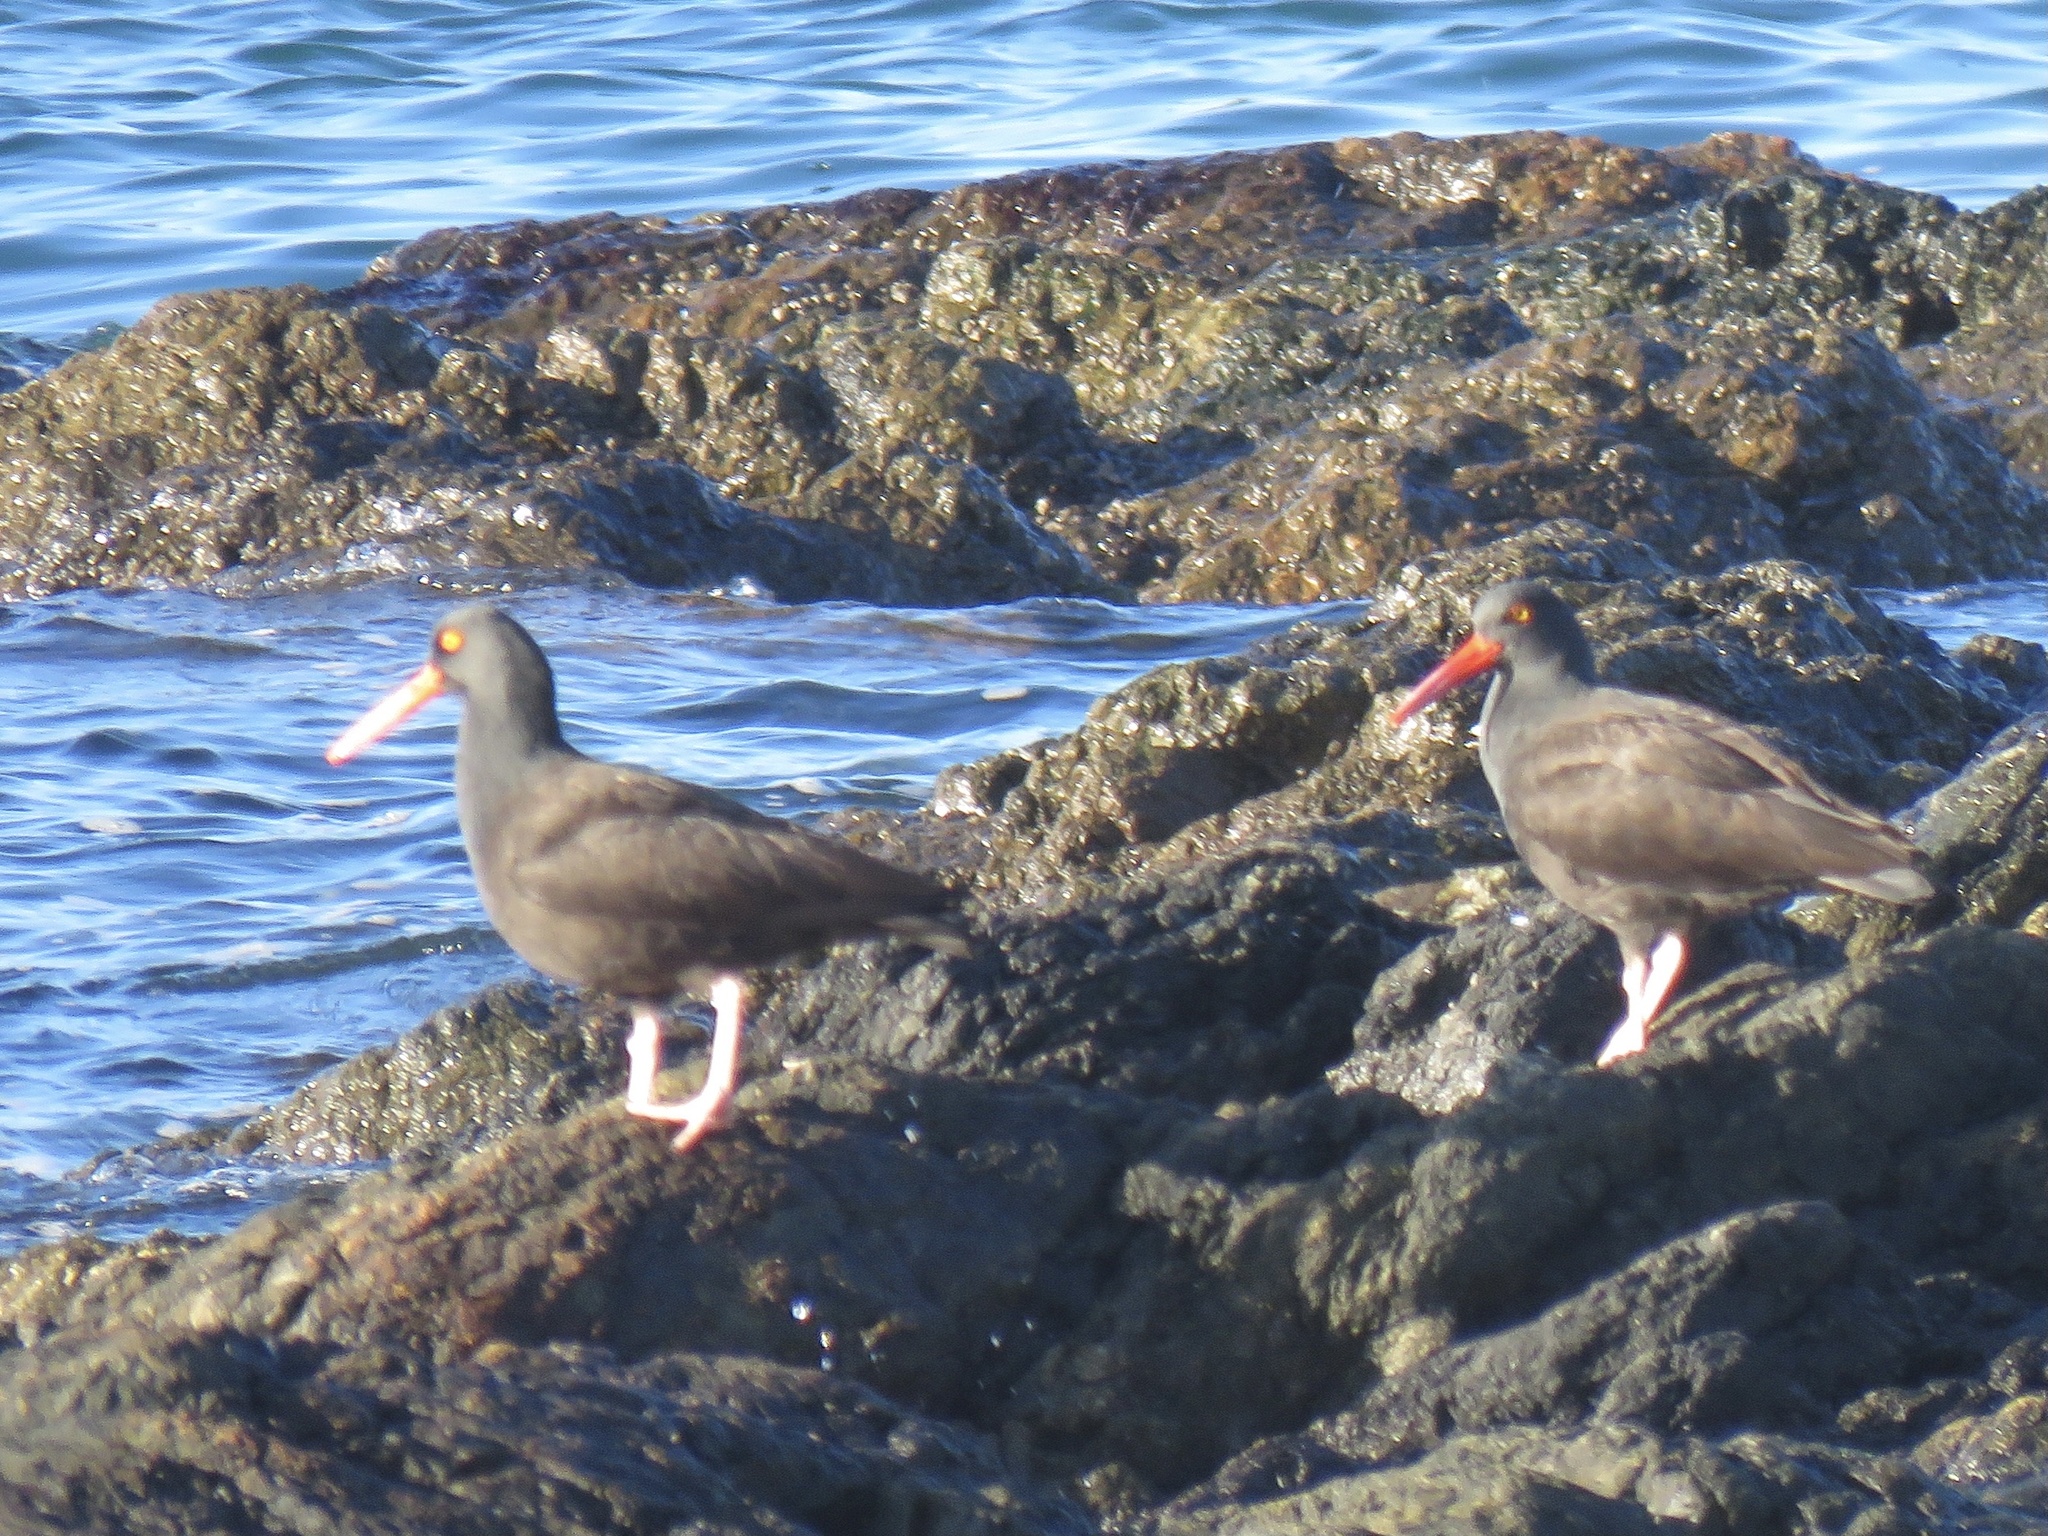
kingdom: Animalia
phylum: Chordata
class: Aves
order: Charadriiformes
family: Haematopodidae
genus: Haematopus
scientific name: Haematopus bachmani
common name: Black oystercatcher
